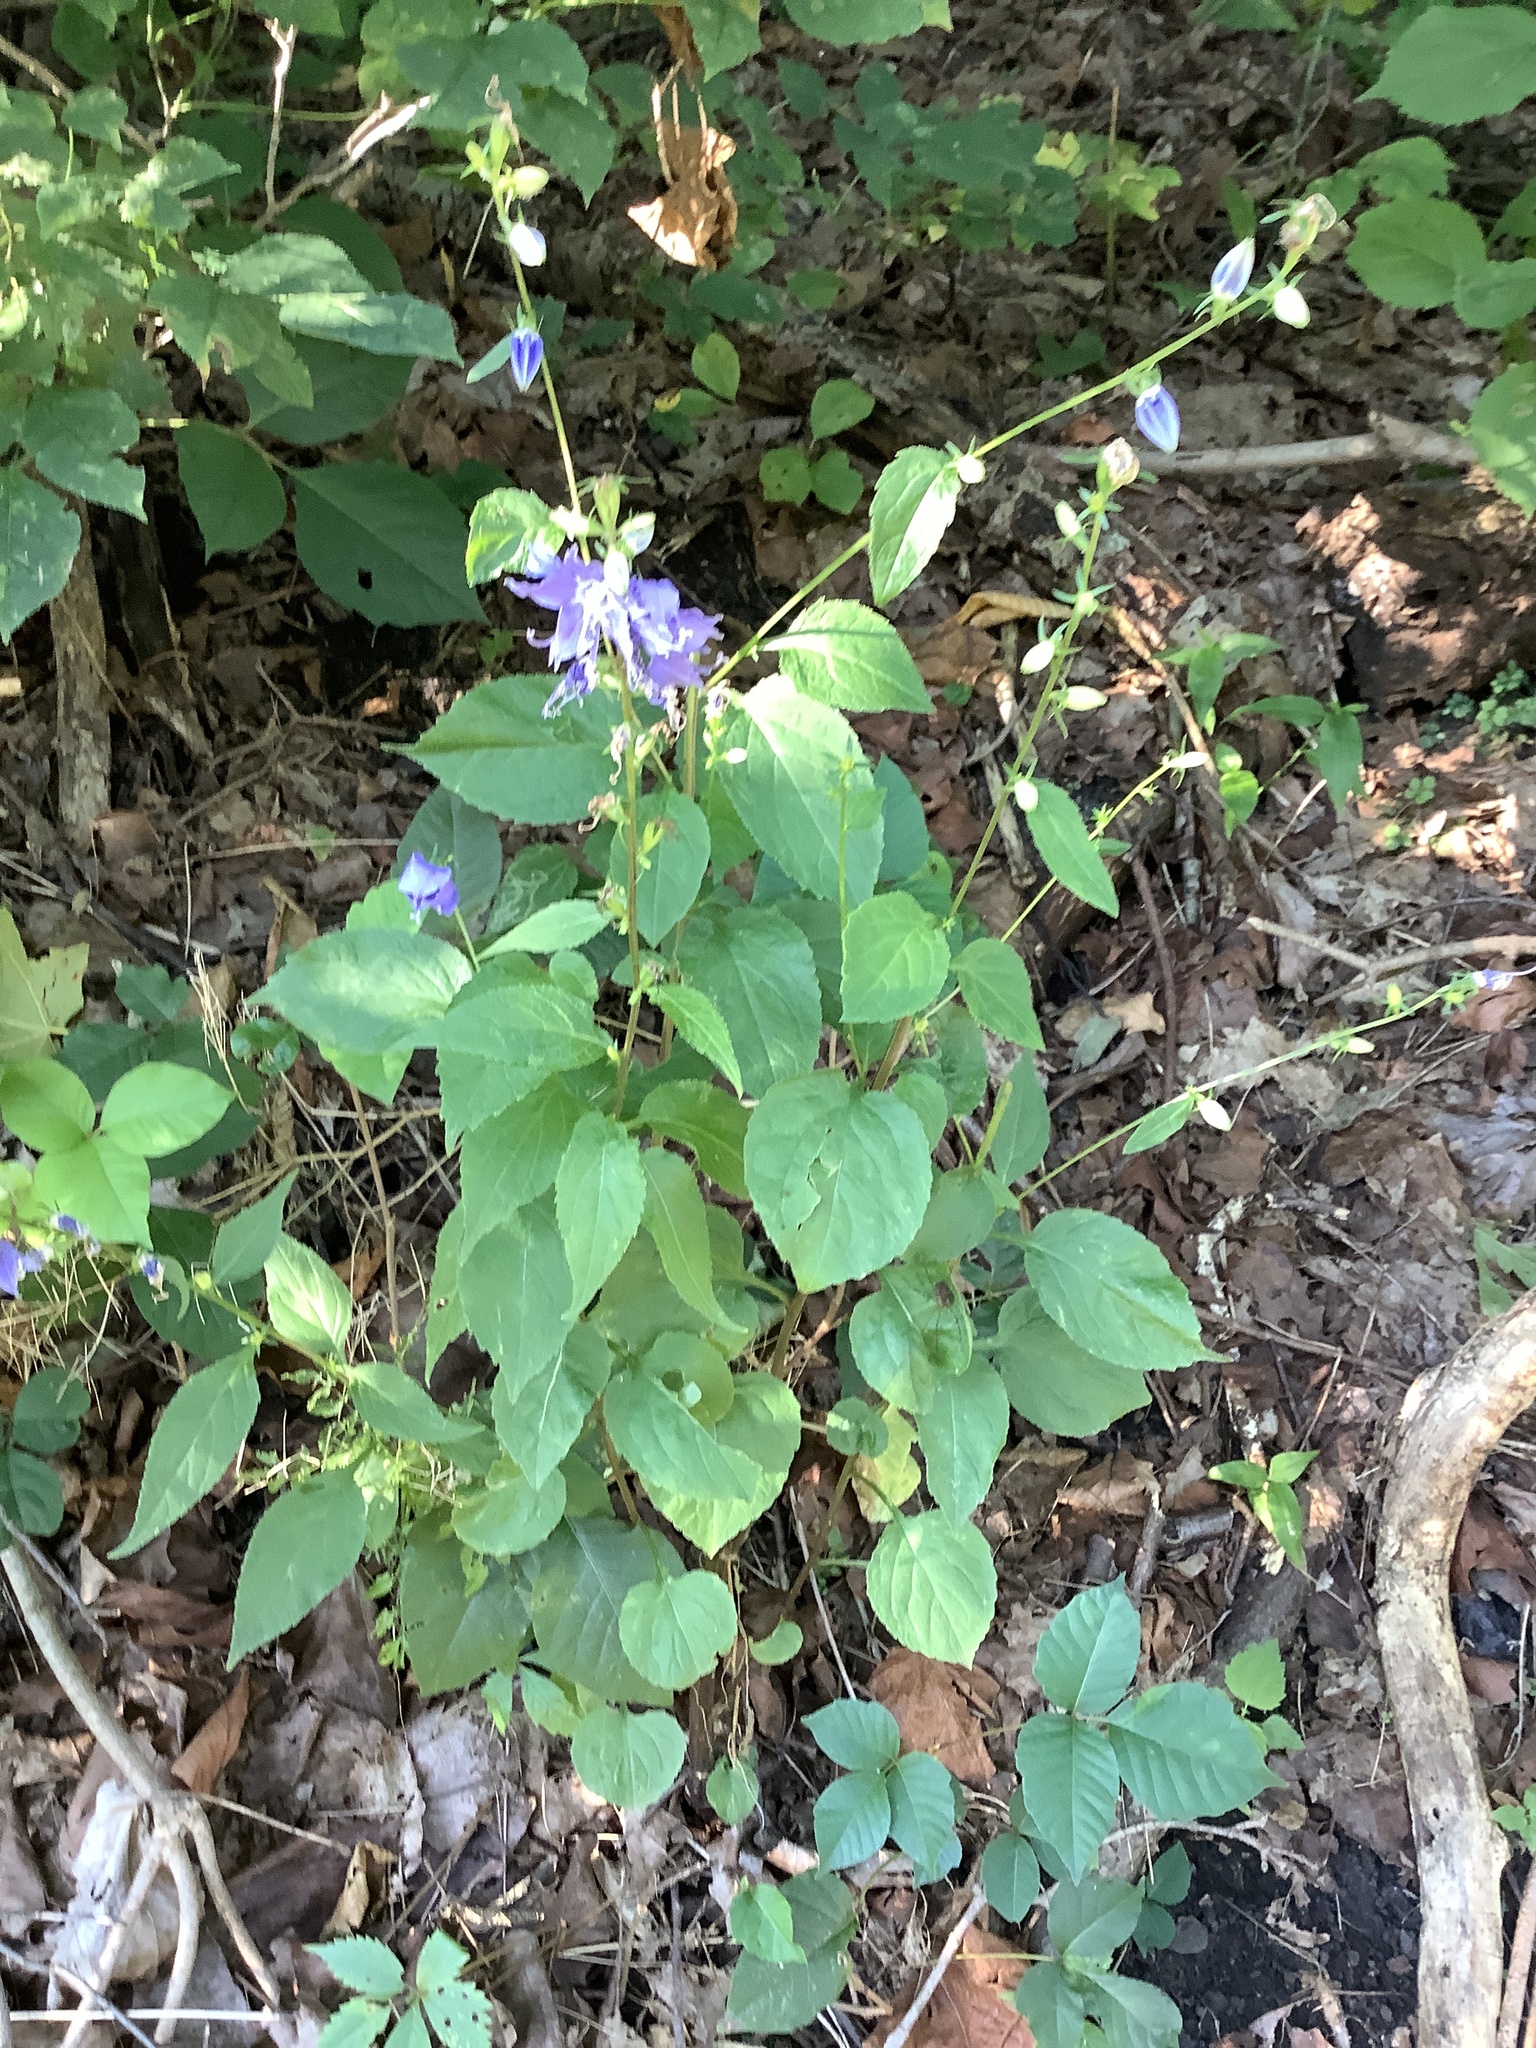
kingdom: Plantae
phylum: Tracheophyta
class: Magnoliopsida
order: Asterales
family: Campanulaceae
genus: Campanulastrum
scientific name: Campanulastrum americanum
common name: American bellflower
